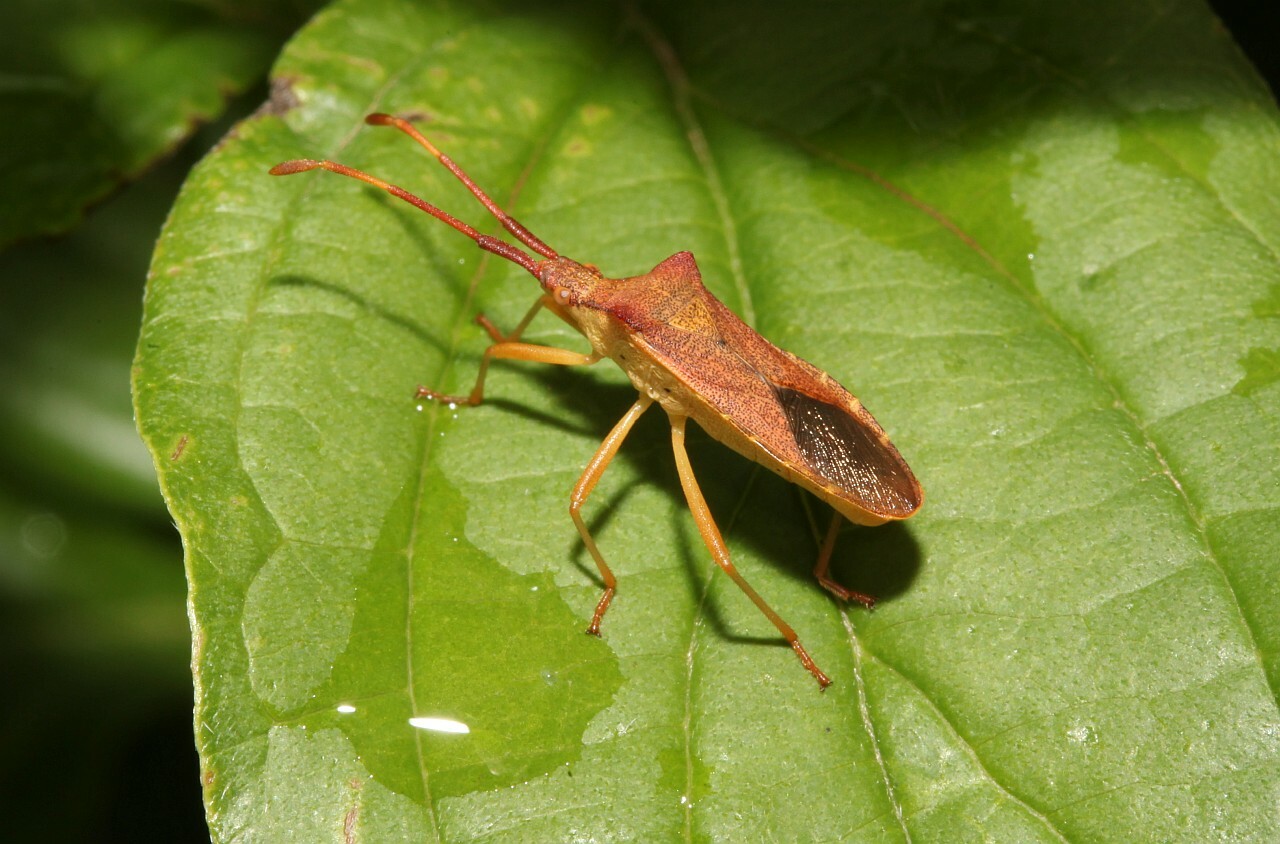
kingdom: Animalia
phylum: Arthropoda
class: Insecta
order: Hemiptera
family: Coreidae
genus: Gonocerus
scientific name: Gonocerus acuteangulatus
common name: Box bug
